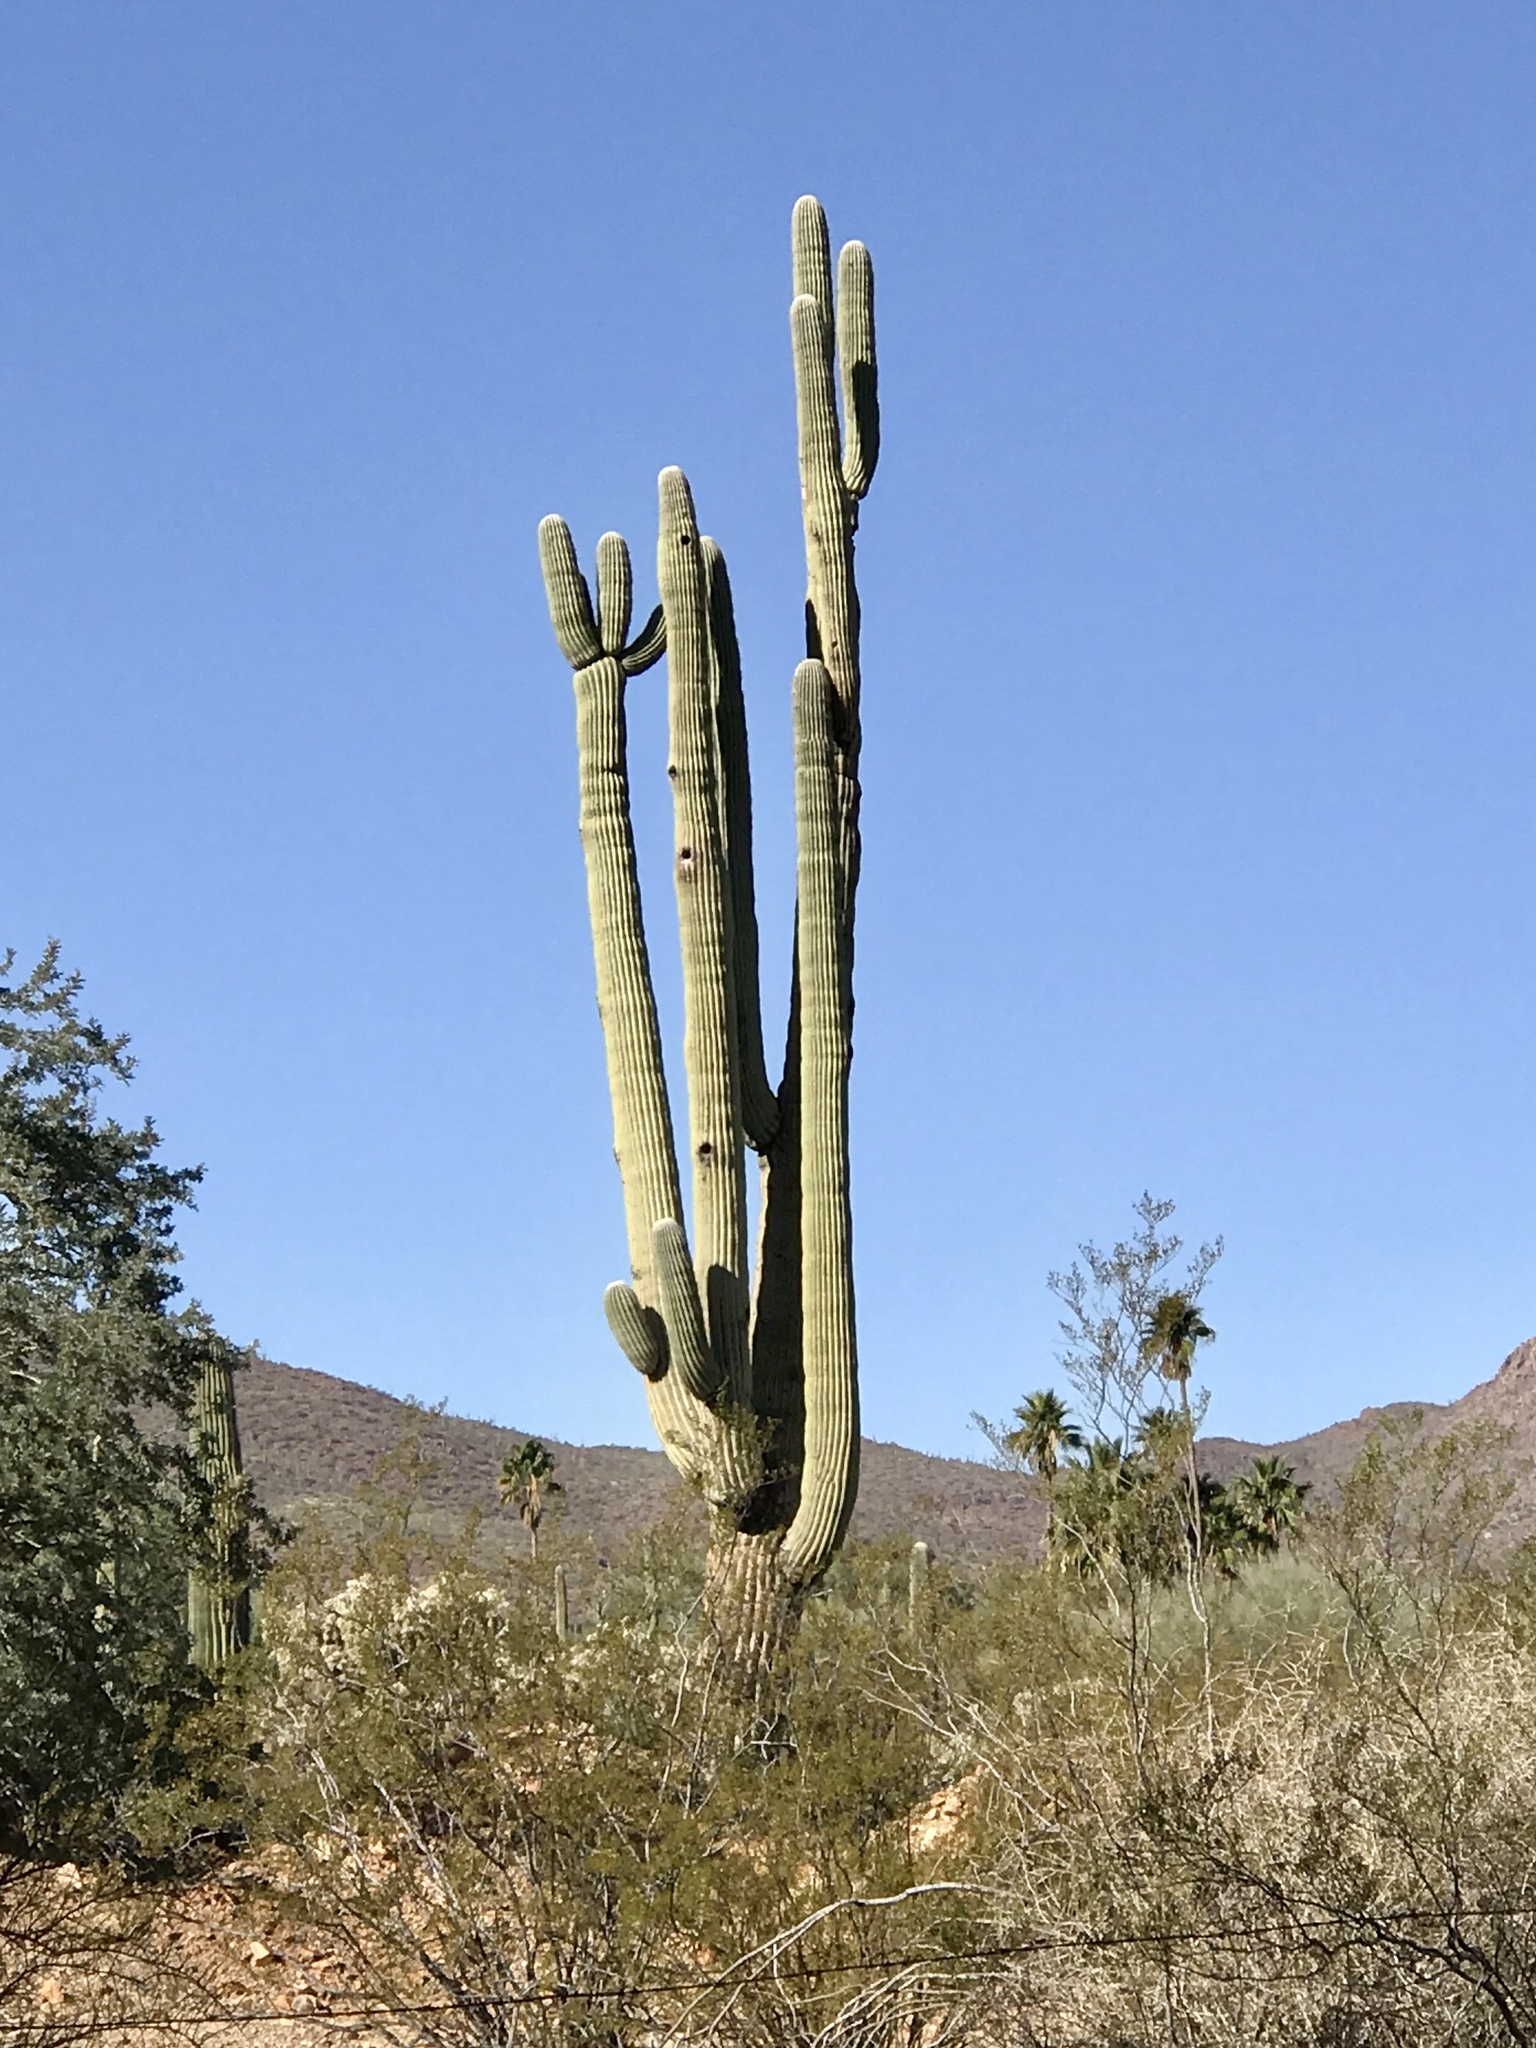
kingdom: Plantae
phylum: Tracheophyta
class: Magnoliopsida
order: Caryophyllales
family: Cactaceae
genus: Carnegiea
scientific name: Carnegiea gigantea
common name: Saguaro
